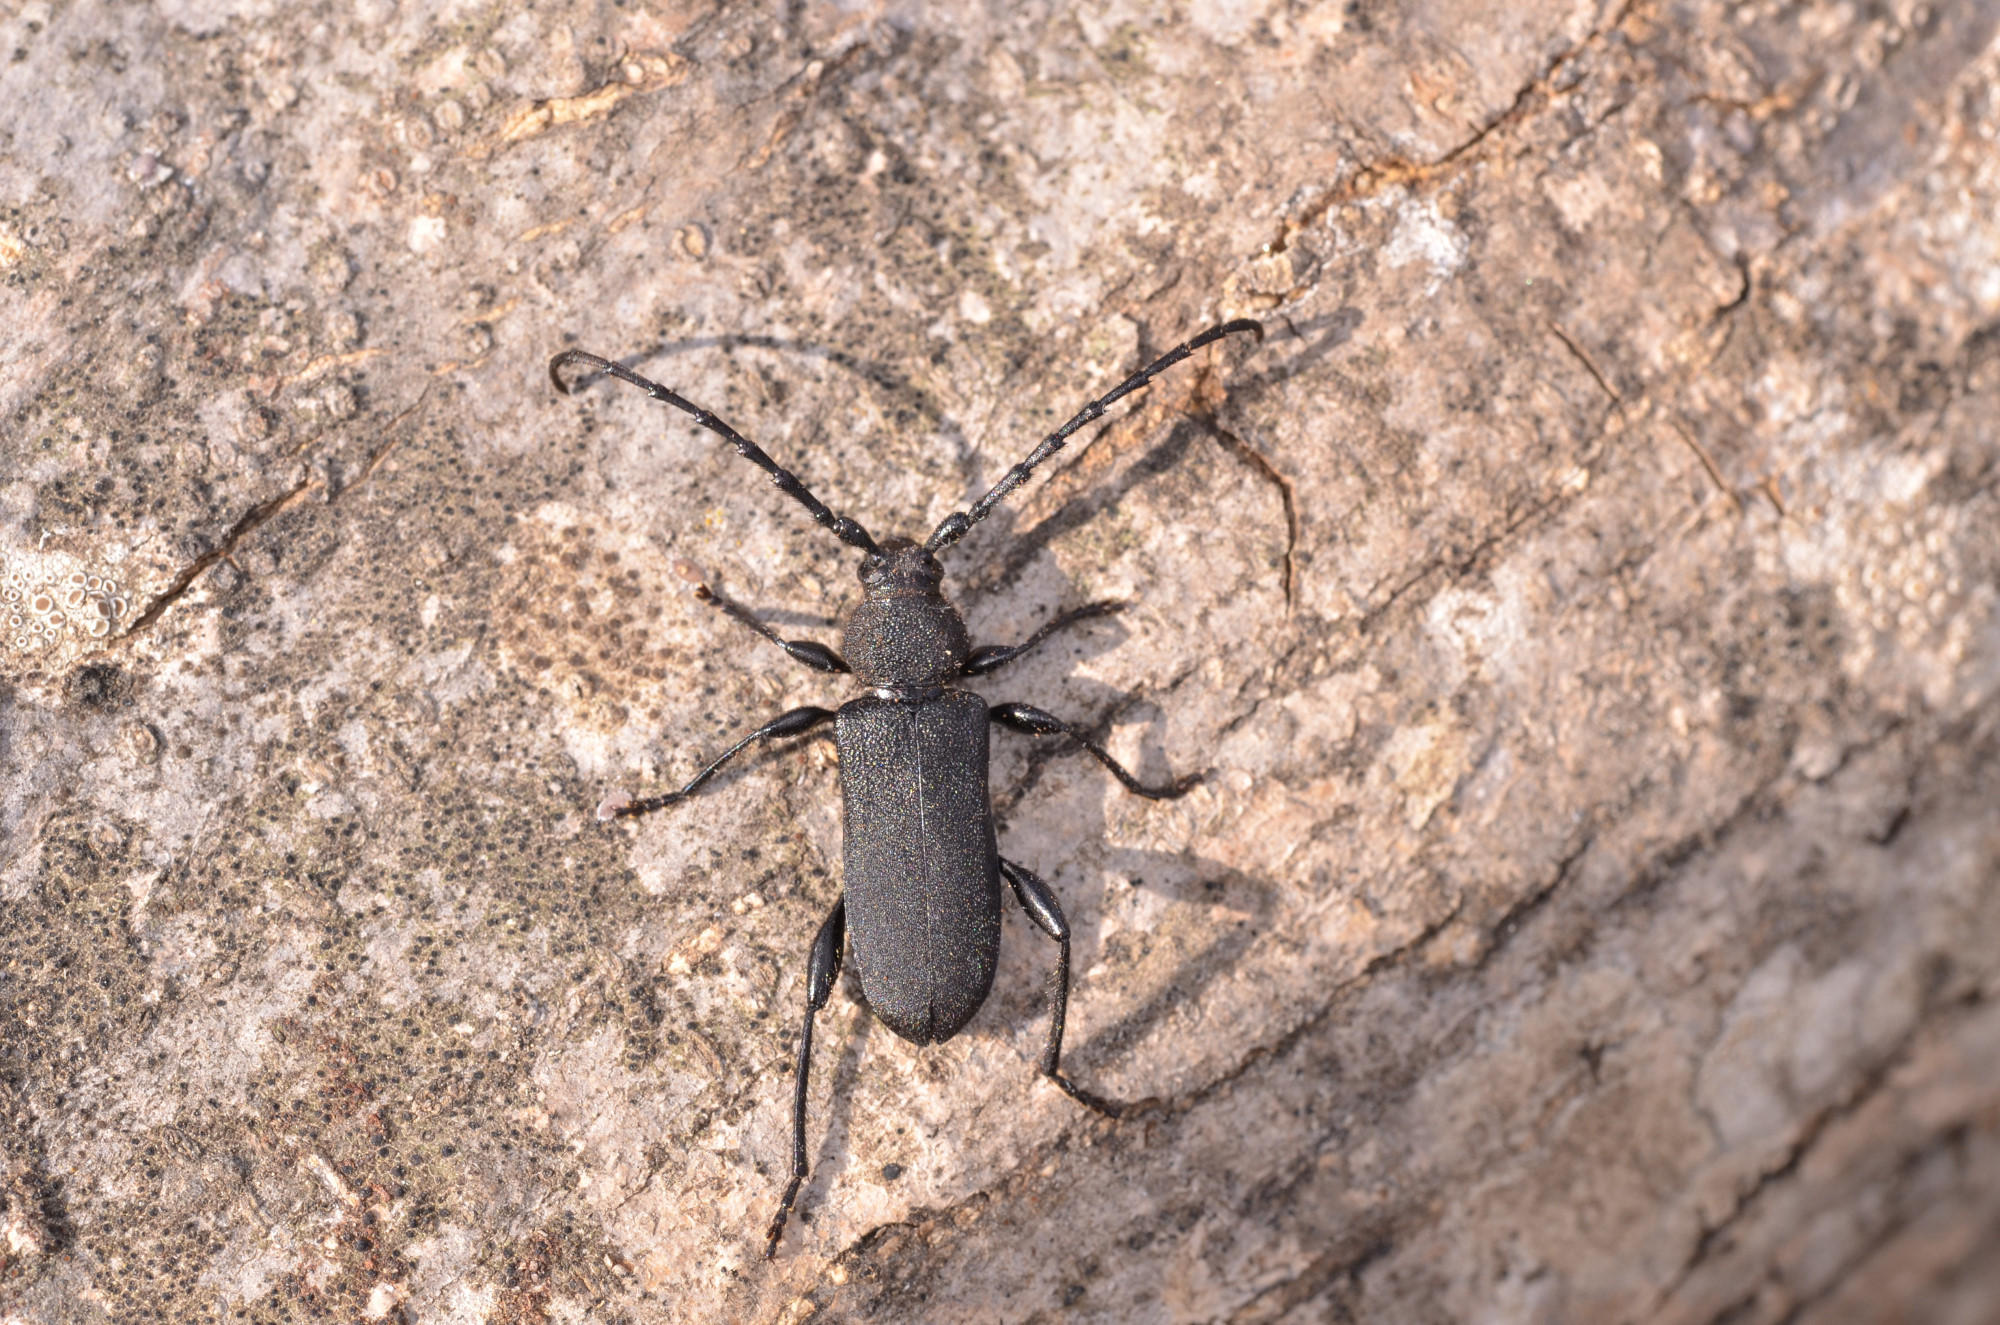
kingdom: Animalia
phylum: Arthropoda
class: Insecta
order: Coleoptera
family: Cerambycidae
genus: Ropalopus
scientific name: Ropalopus clavipes
